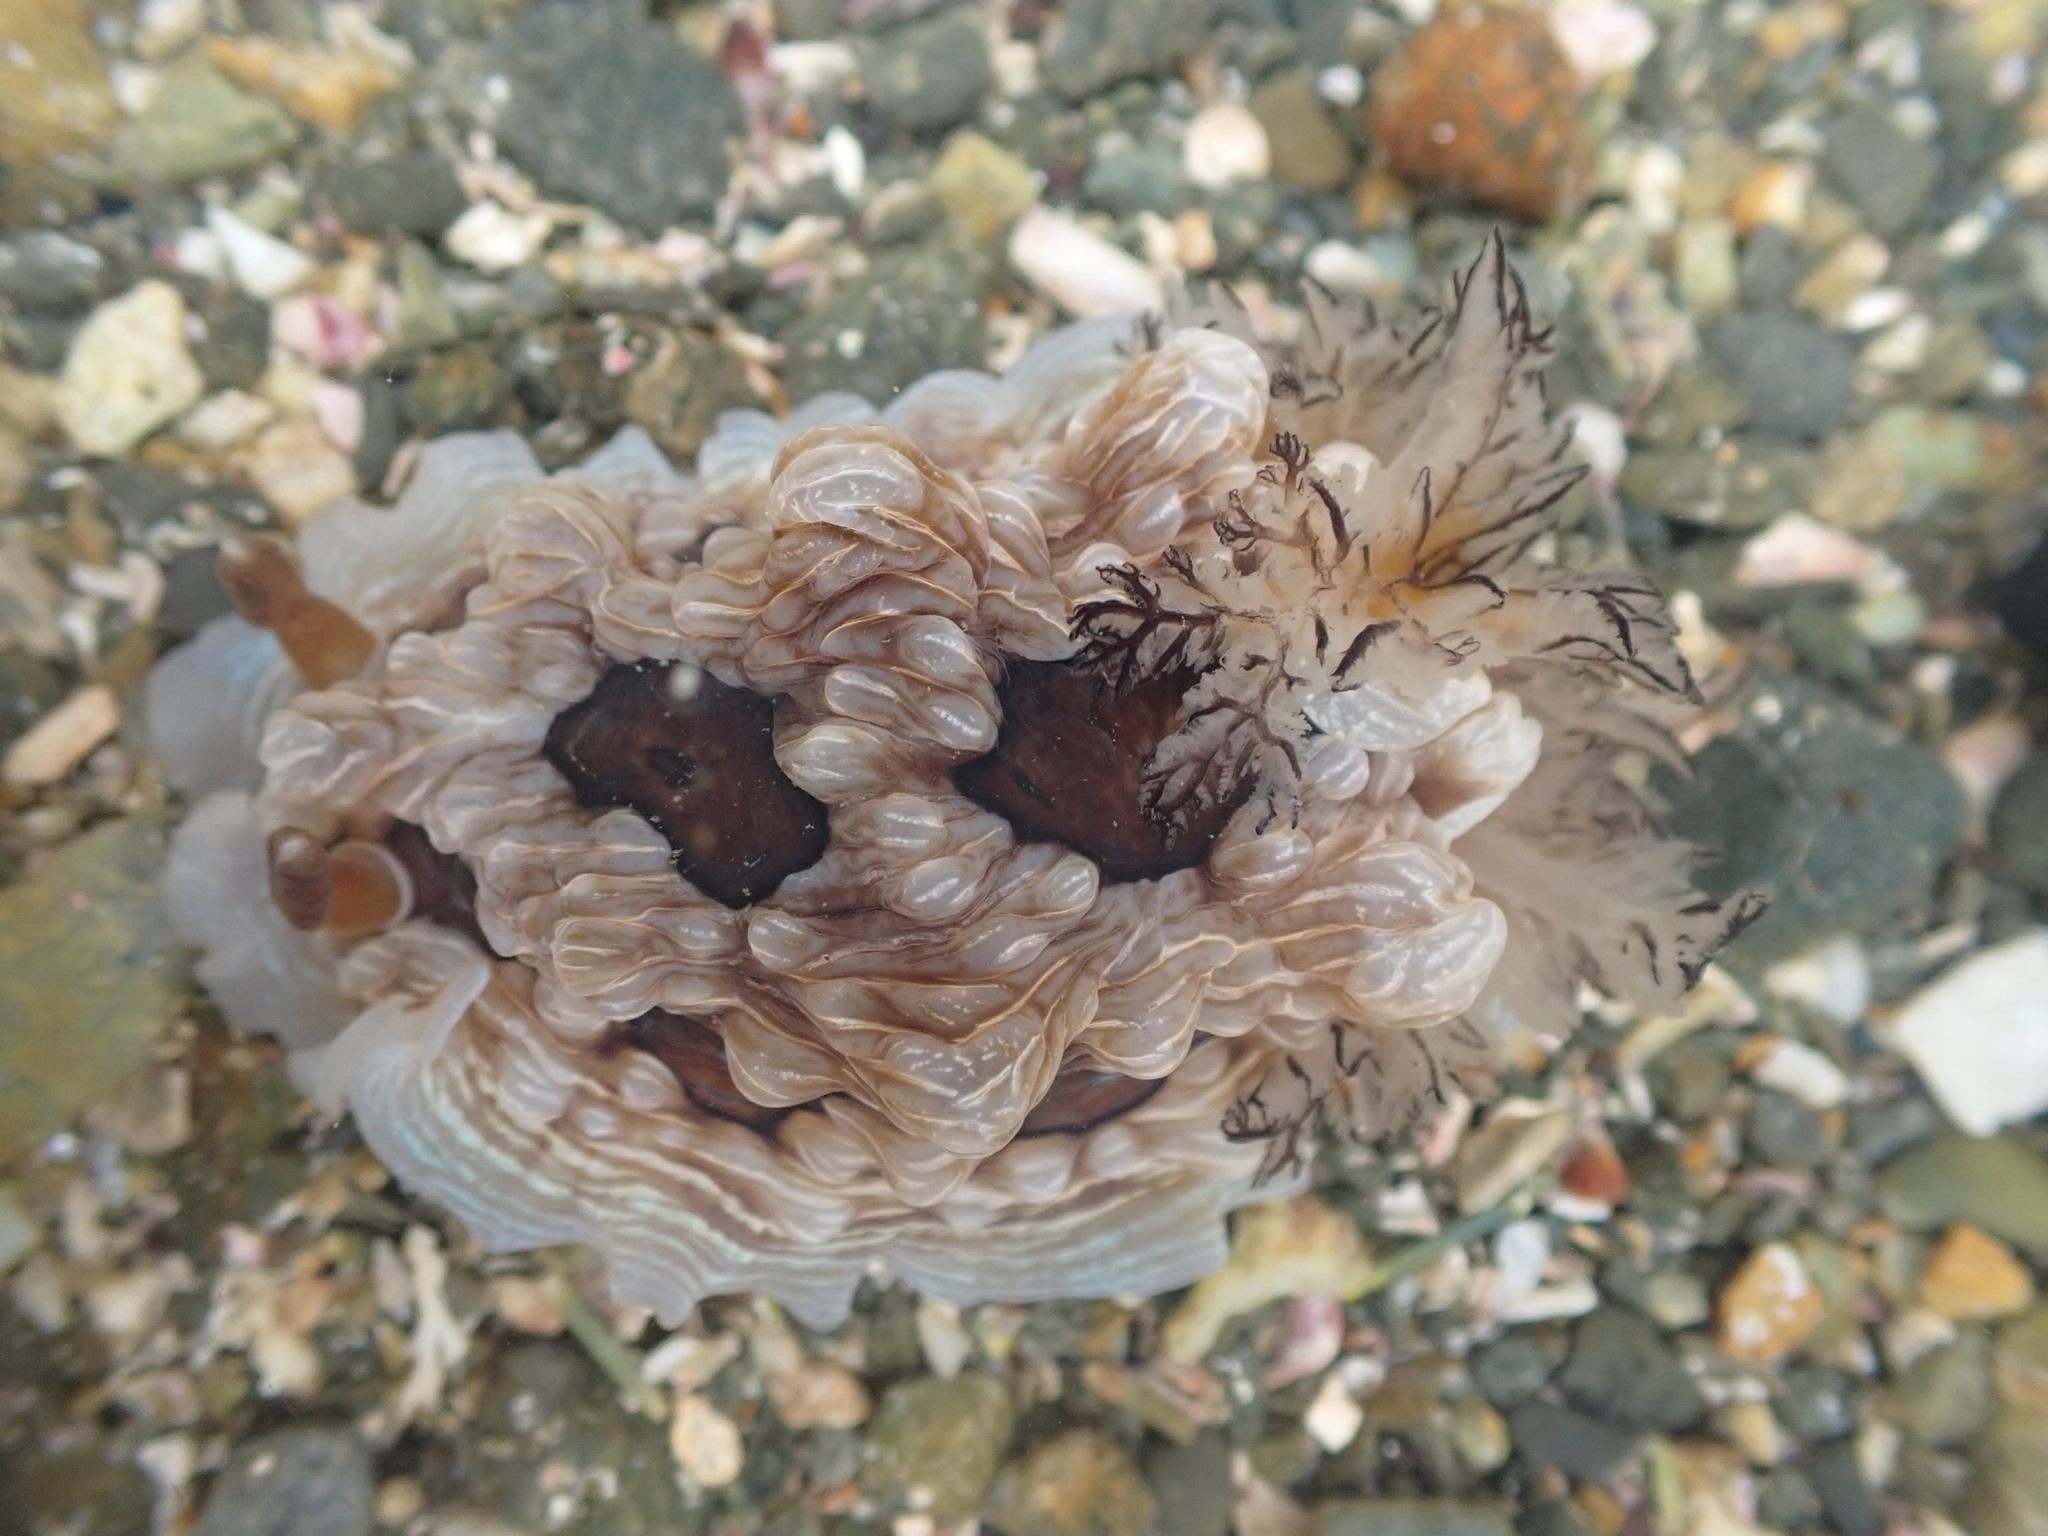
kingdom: Animalia
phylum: Mollusca
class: Gastropoda
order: Nudibranchia
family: Dendrodorididae
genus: Dendrodoris
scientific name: Dendrodoris krusensternii
